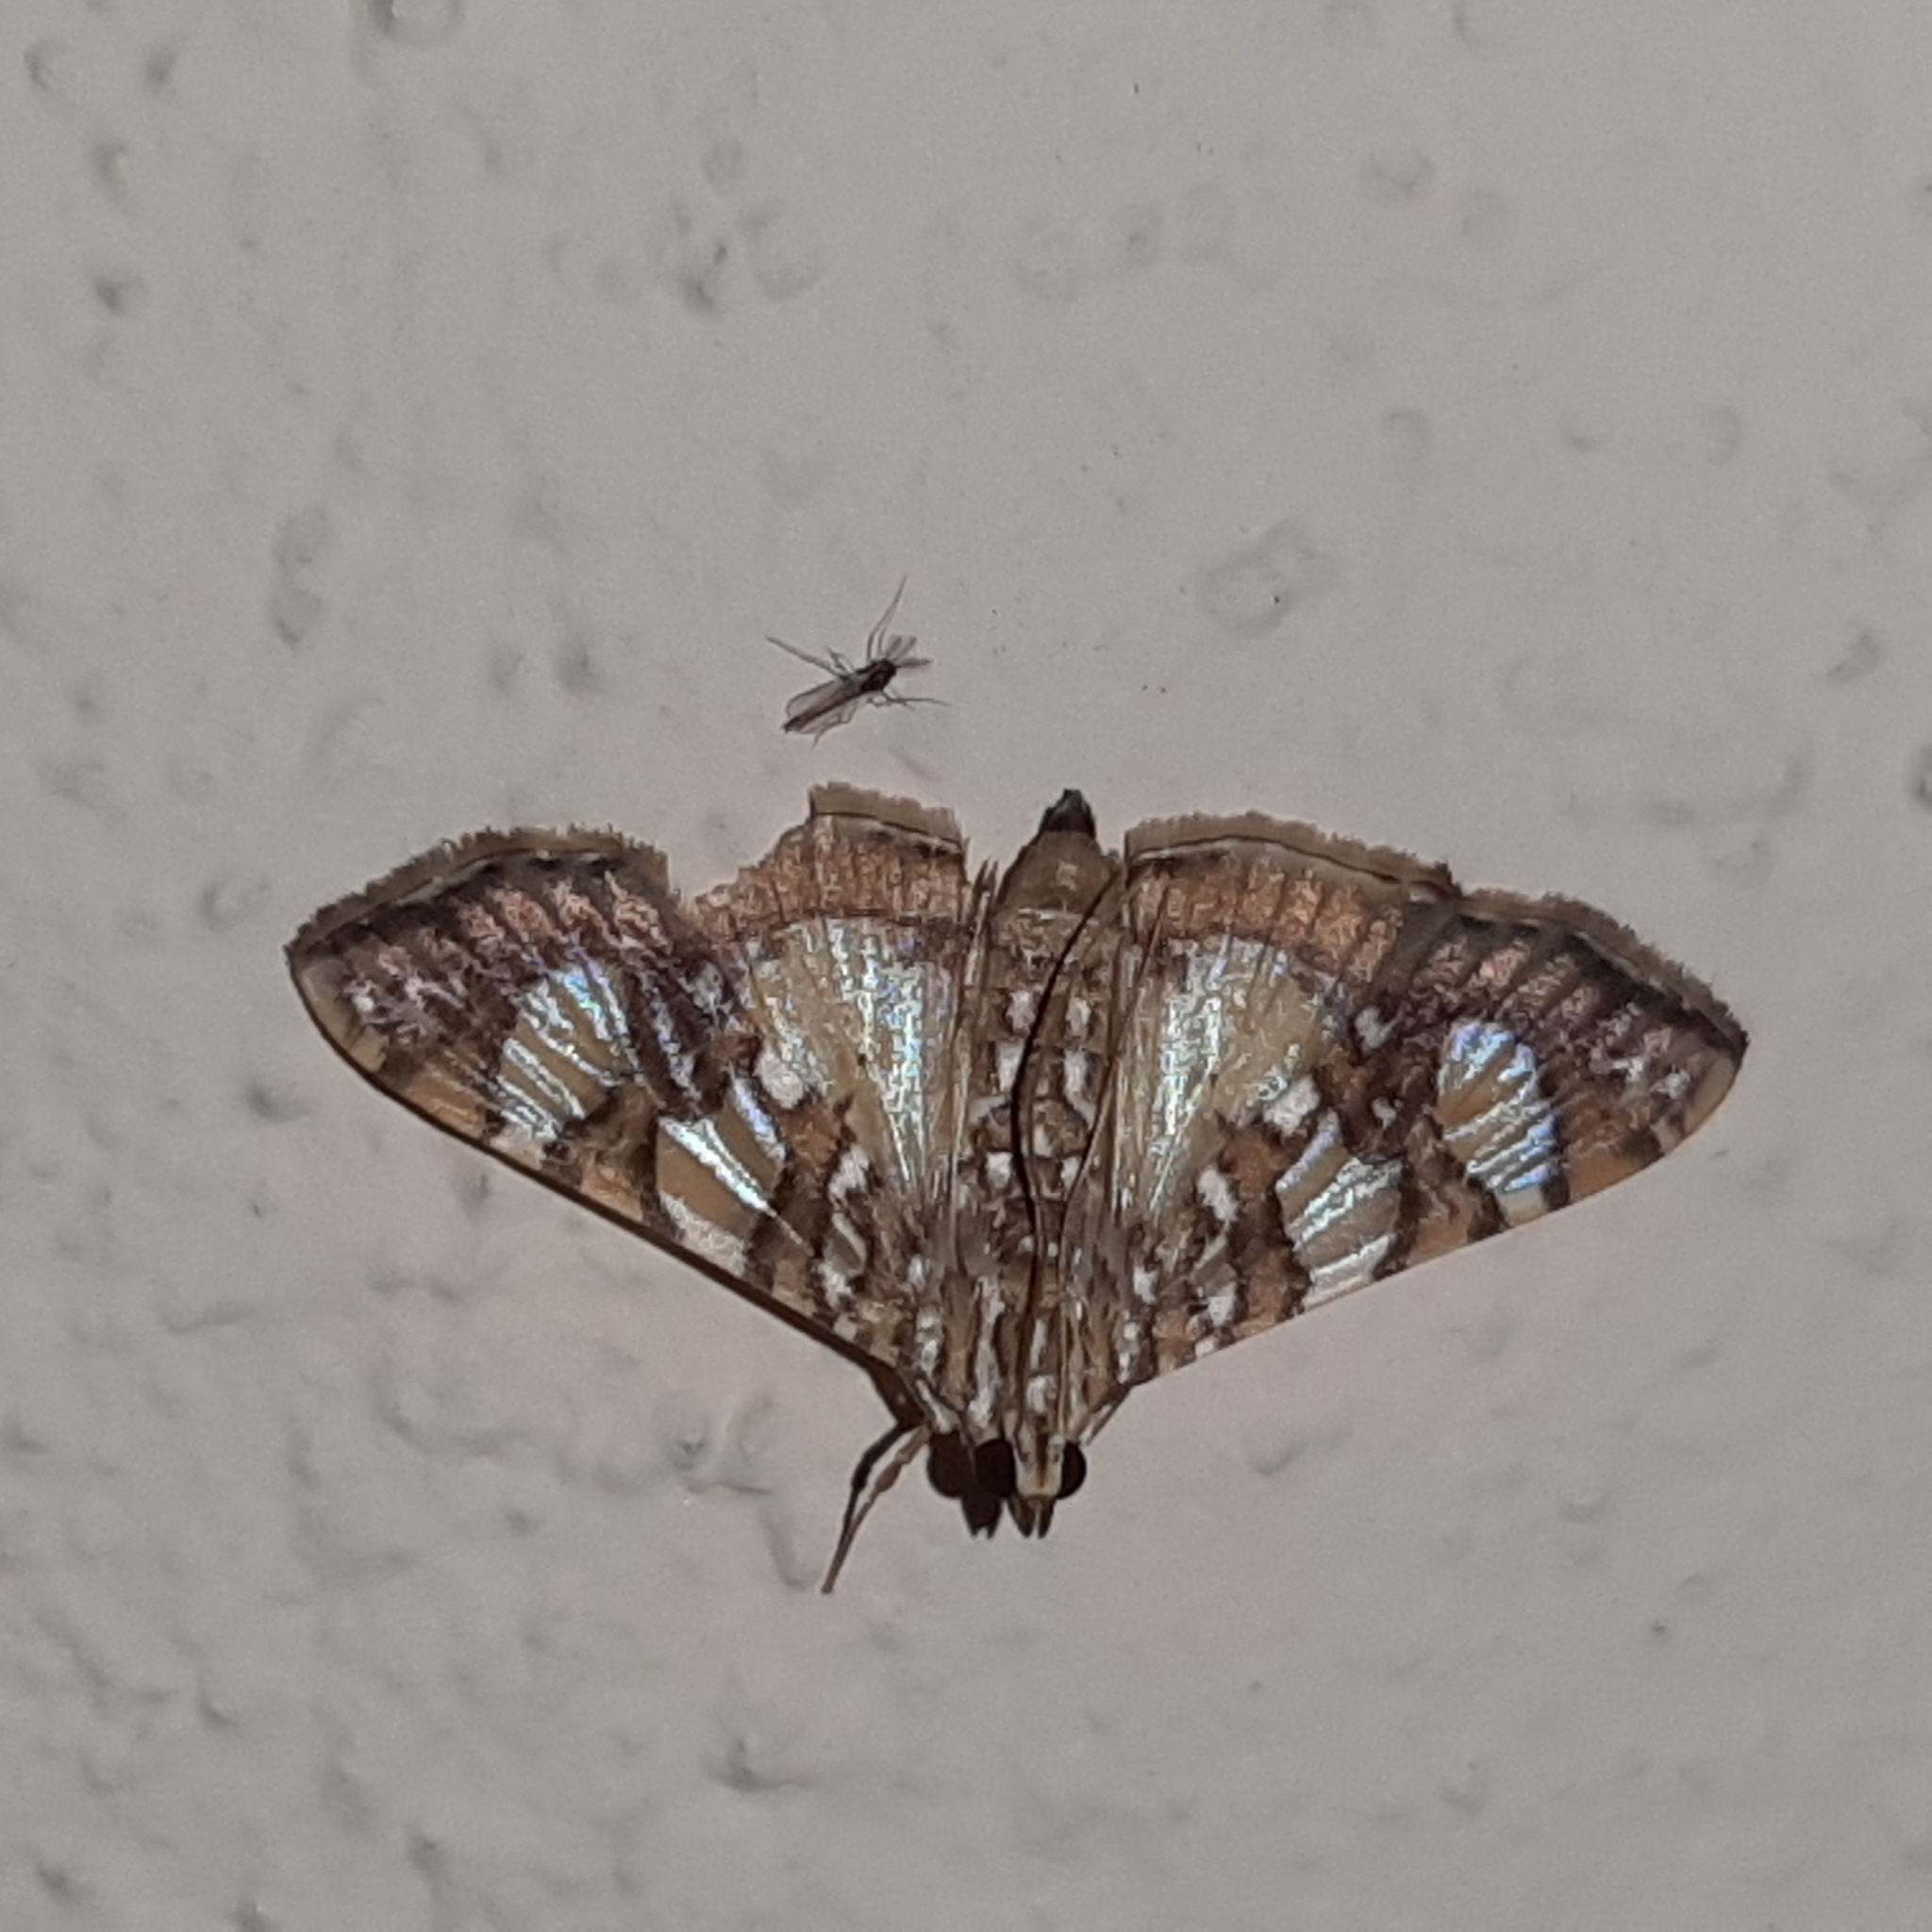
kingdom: Animalia
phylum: Arthropoda
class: Insecta
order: Lepidoptera
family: Crambidae
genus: Glyphodes
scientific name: Glyphodes sibillalis
